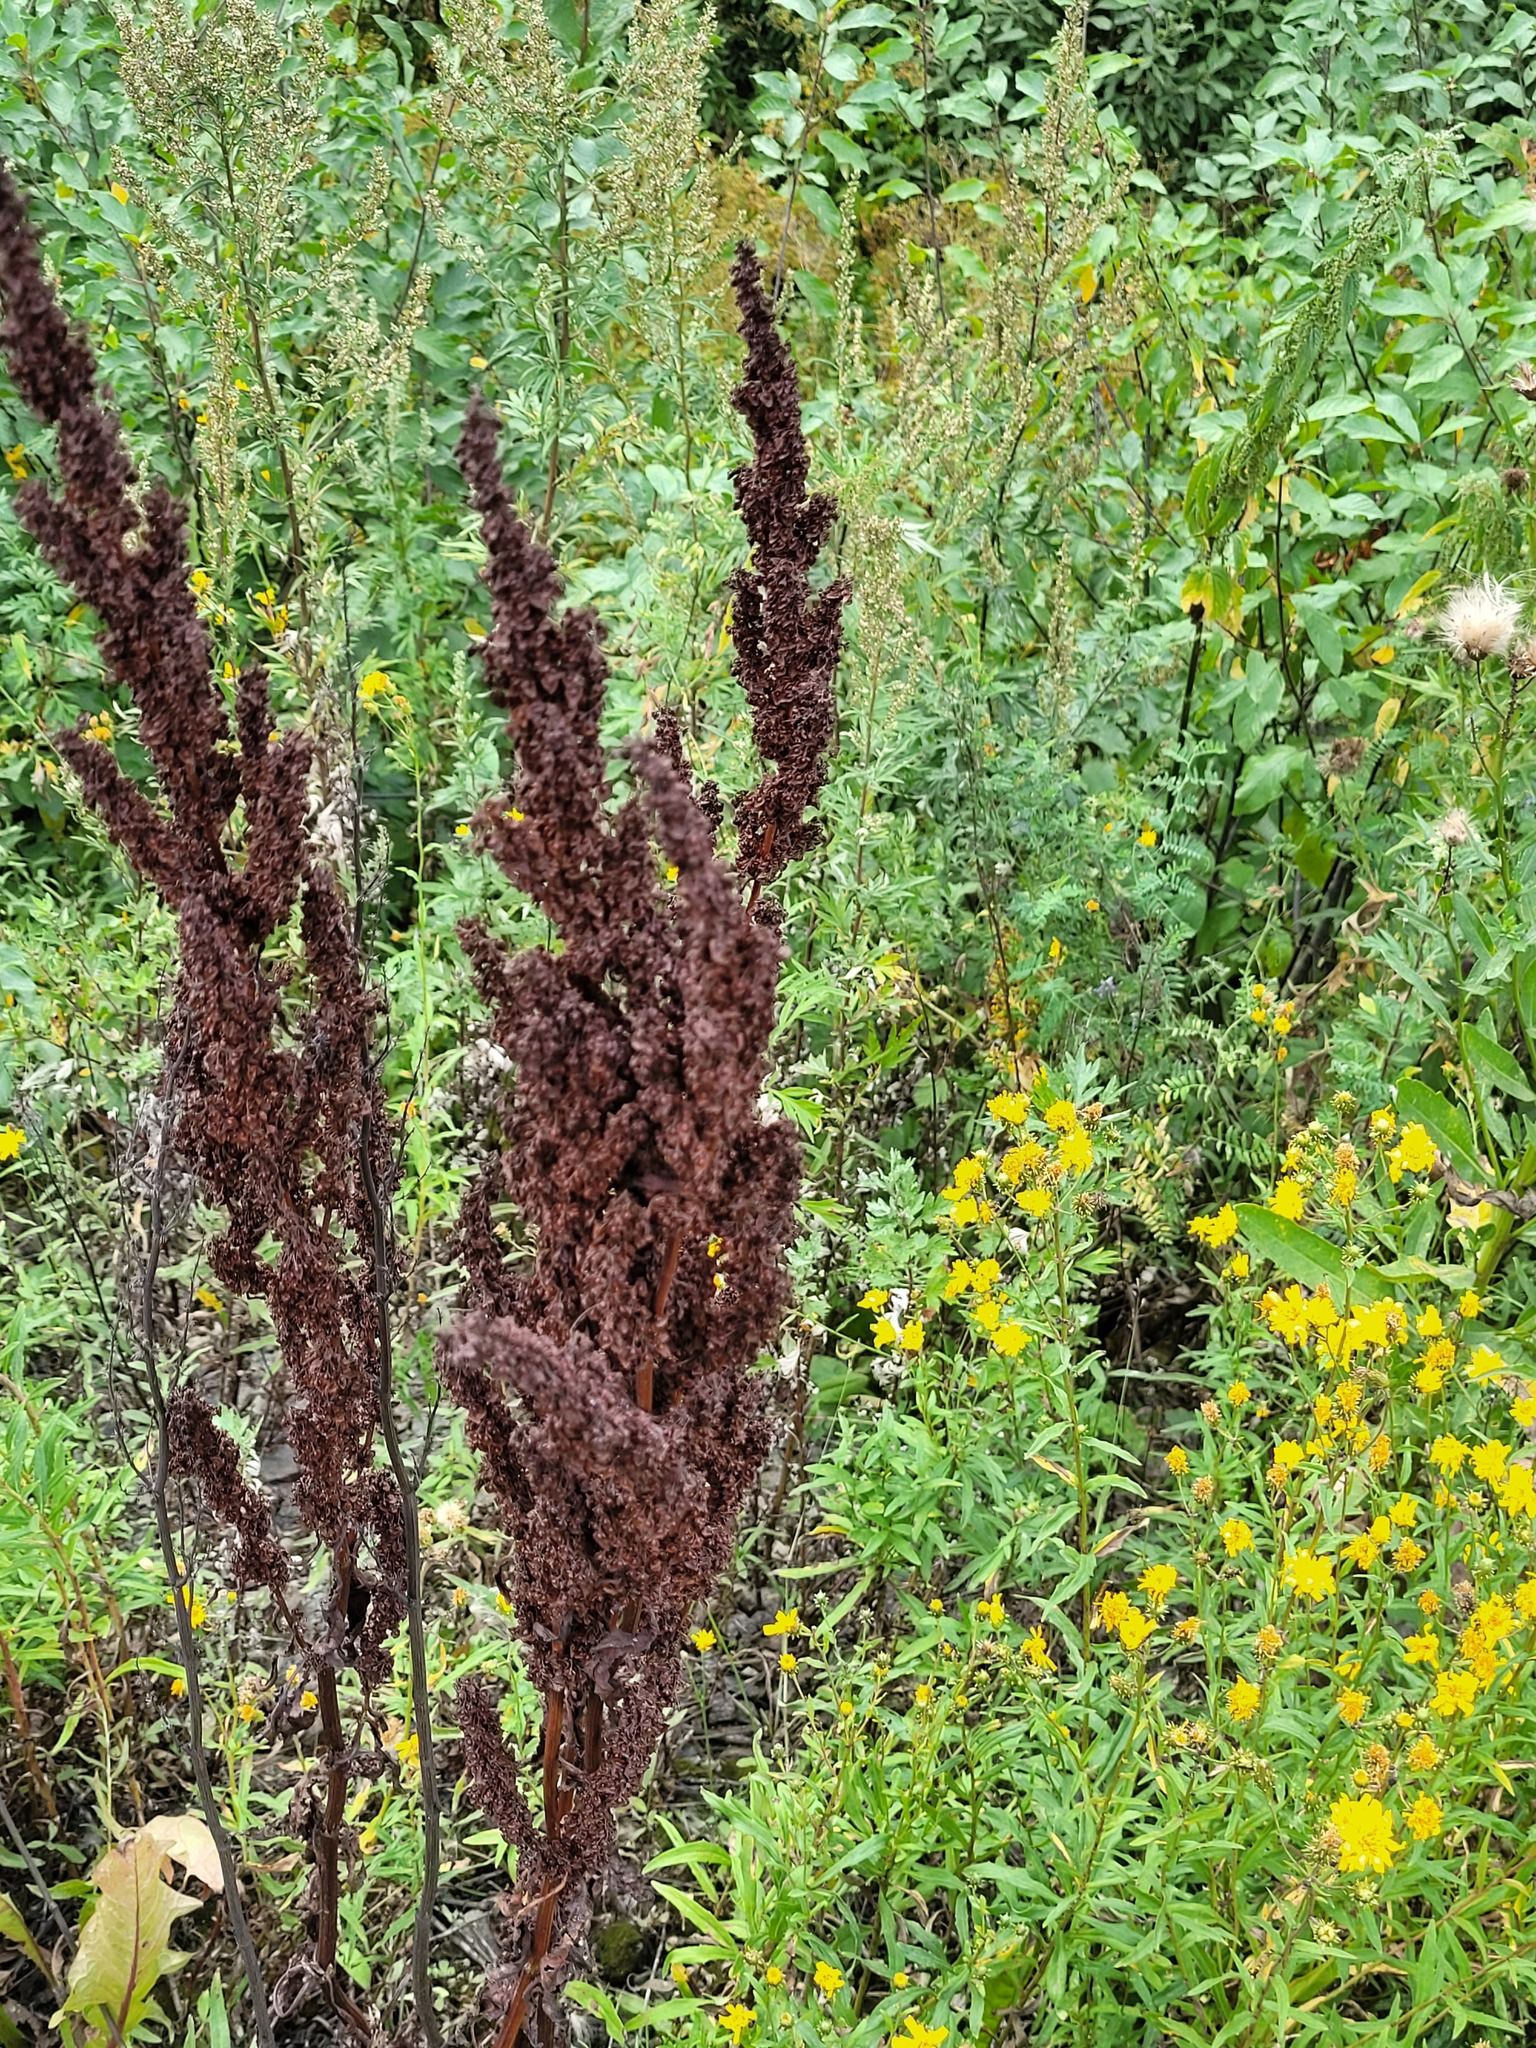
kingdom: Plantae
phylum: Tracheophyta
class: Magnoliopsida
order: Caryophyllales
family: Polygonaceae
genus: Rumex
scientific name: Rumex crispus
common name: Curled dock
